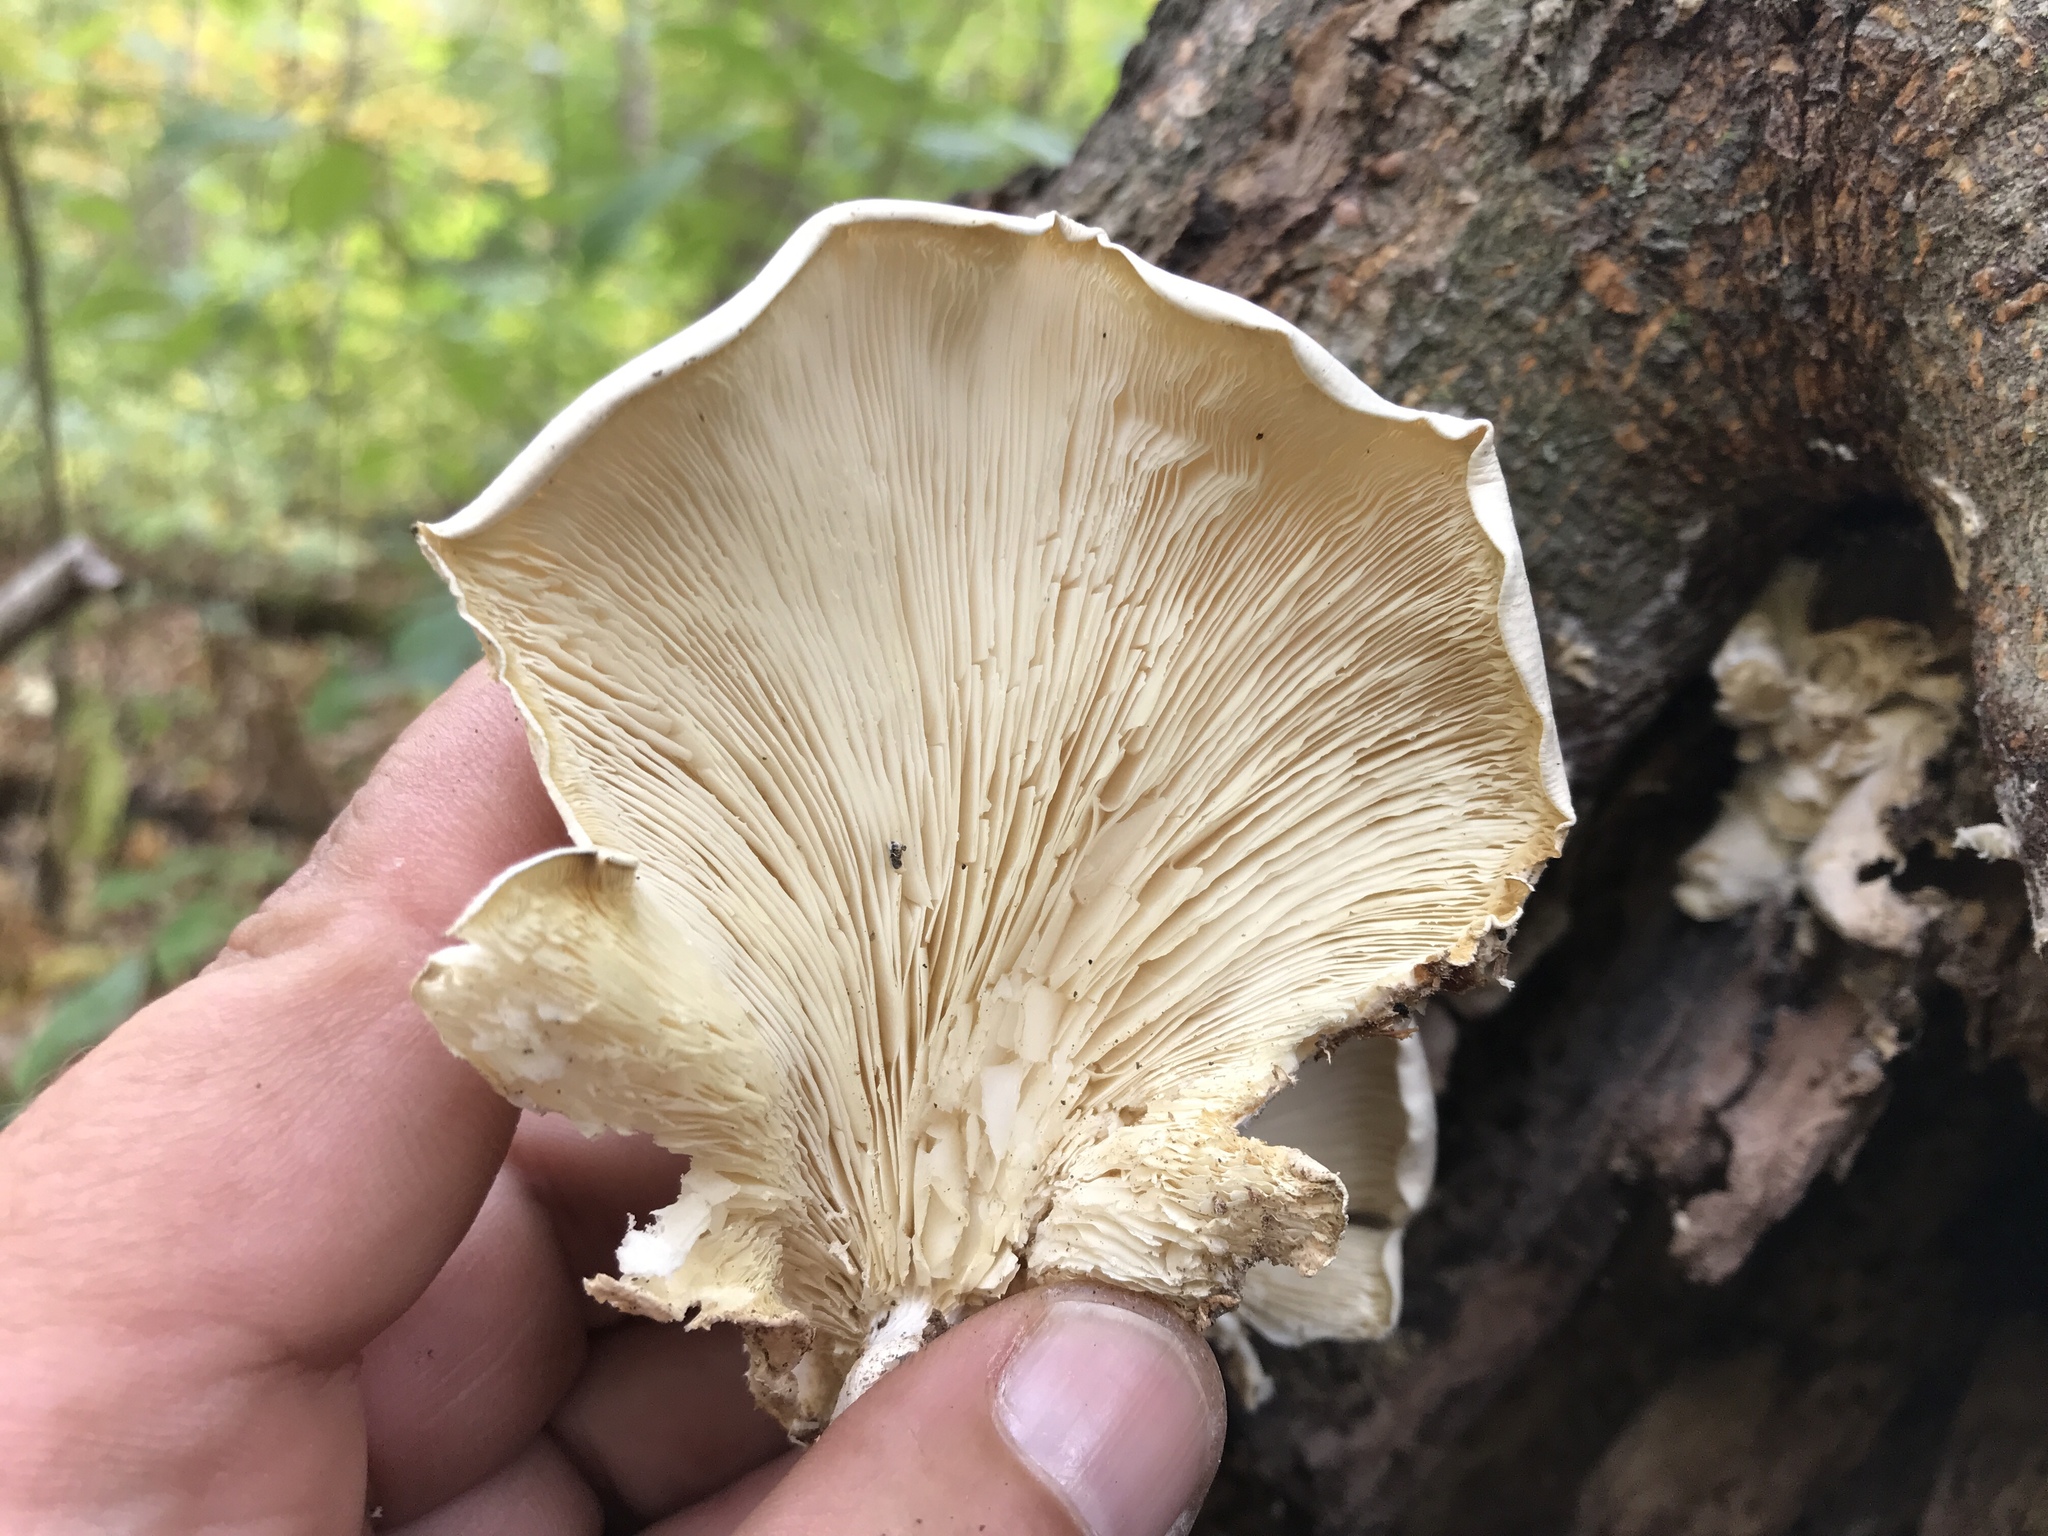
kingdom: Fungi
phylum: Basidiomycota
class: Agaricomycetes
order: Agaricales
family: Pleurotaceae
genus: Pleurotus
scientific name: Pleurotus pulmonarius
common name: Pale oyster
